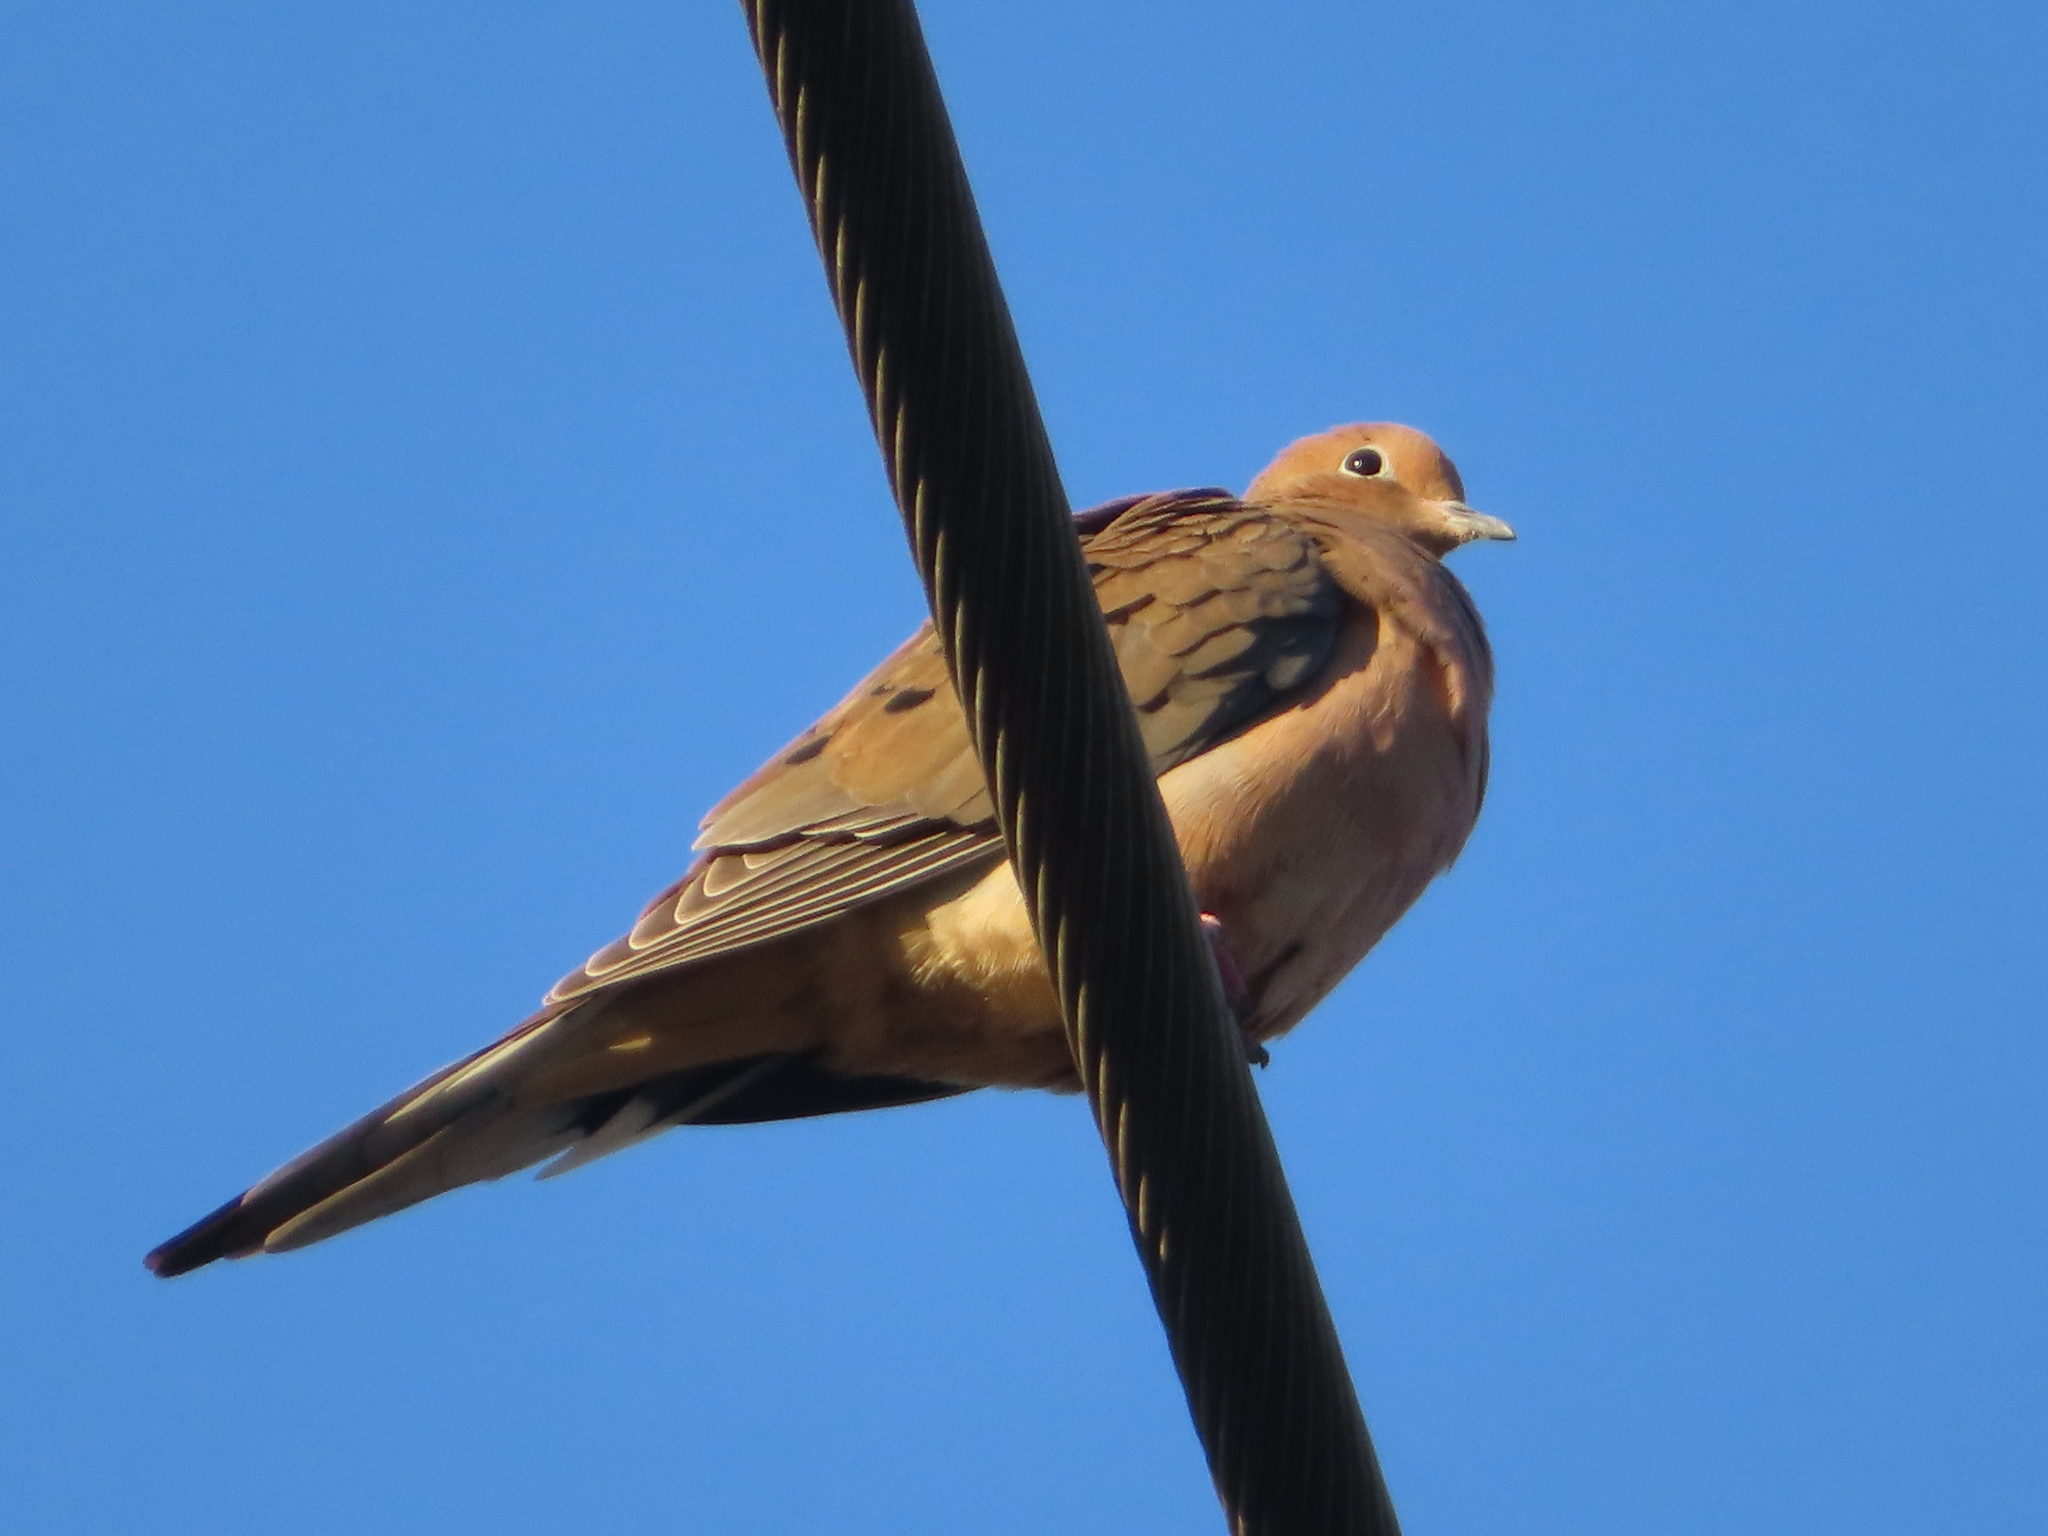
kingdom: Animalia
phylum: Chordata
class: Aves
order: Columbiformes
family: Columbidae
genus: Zenaida
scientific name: Zenaida macroura
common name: Mourning dove
